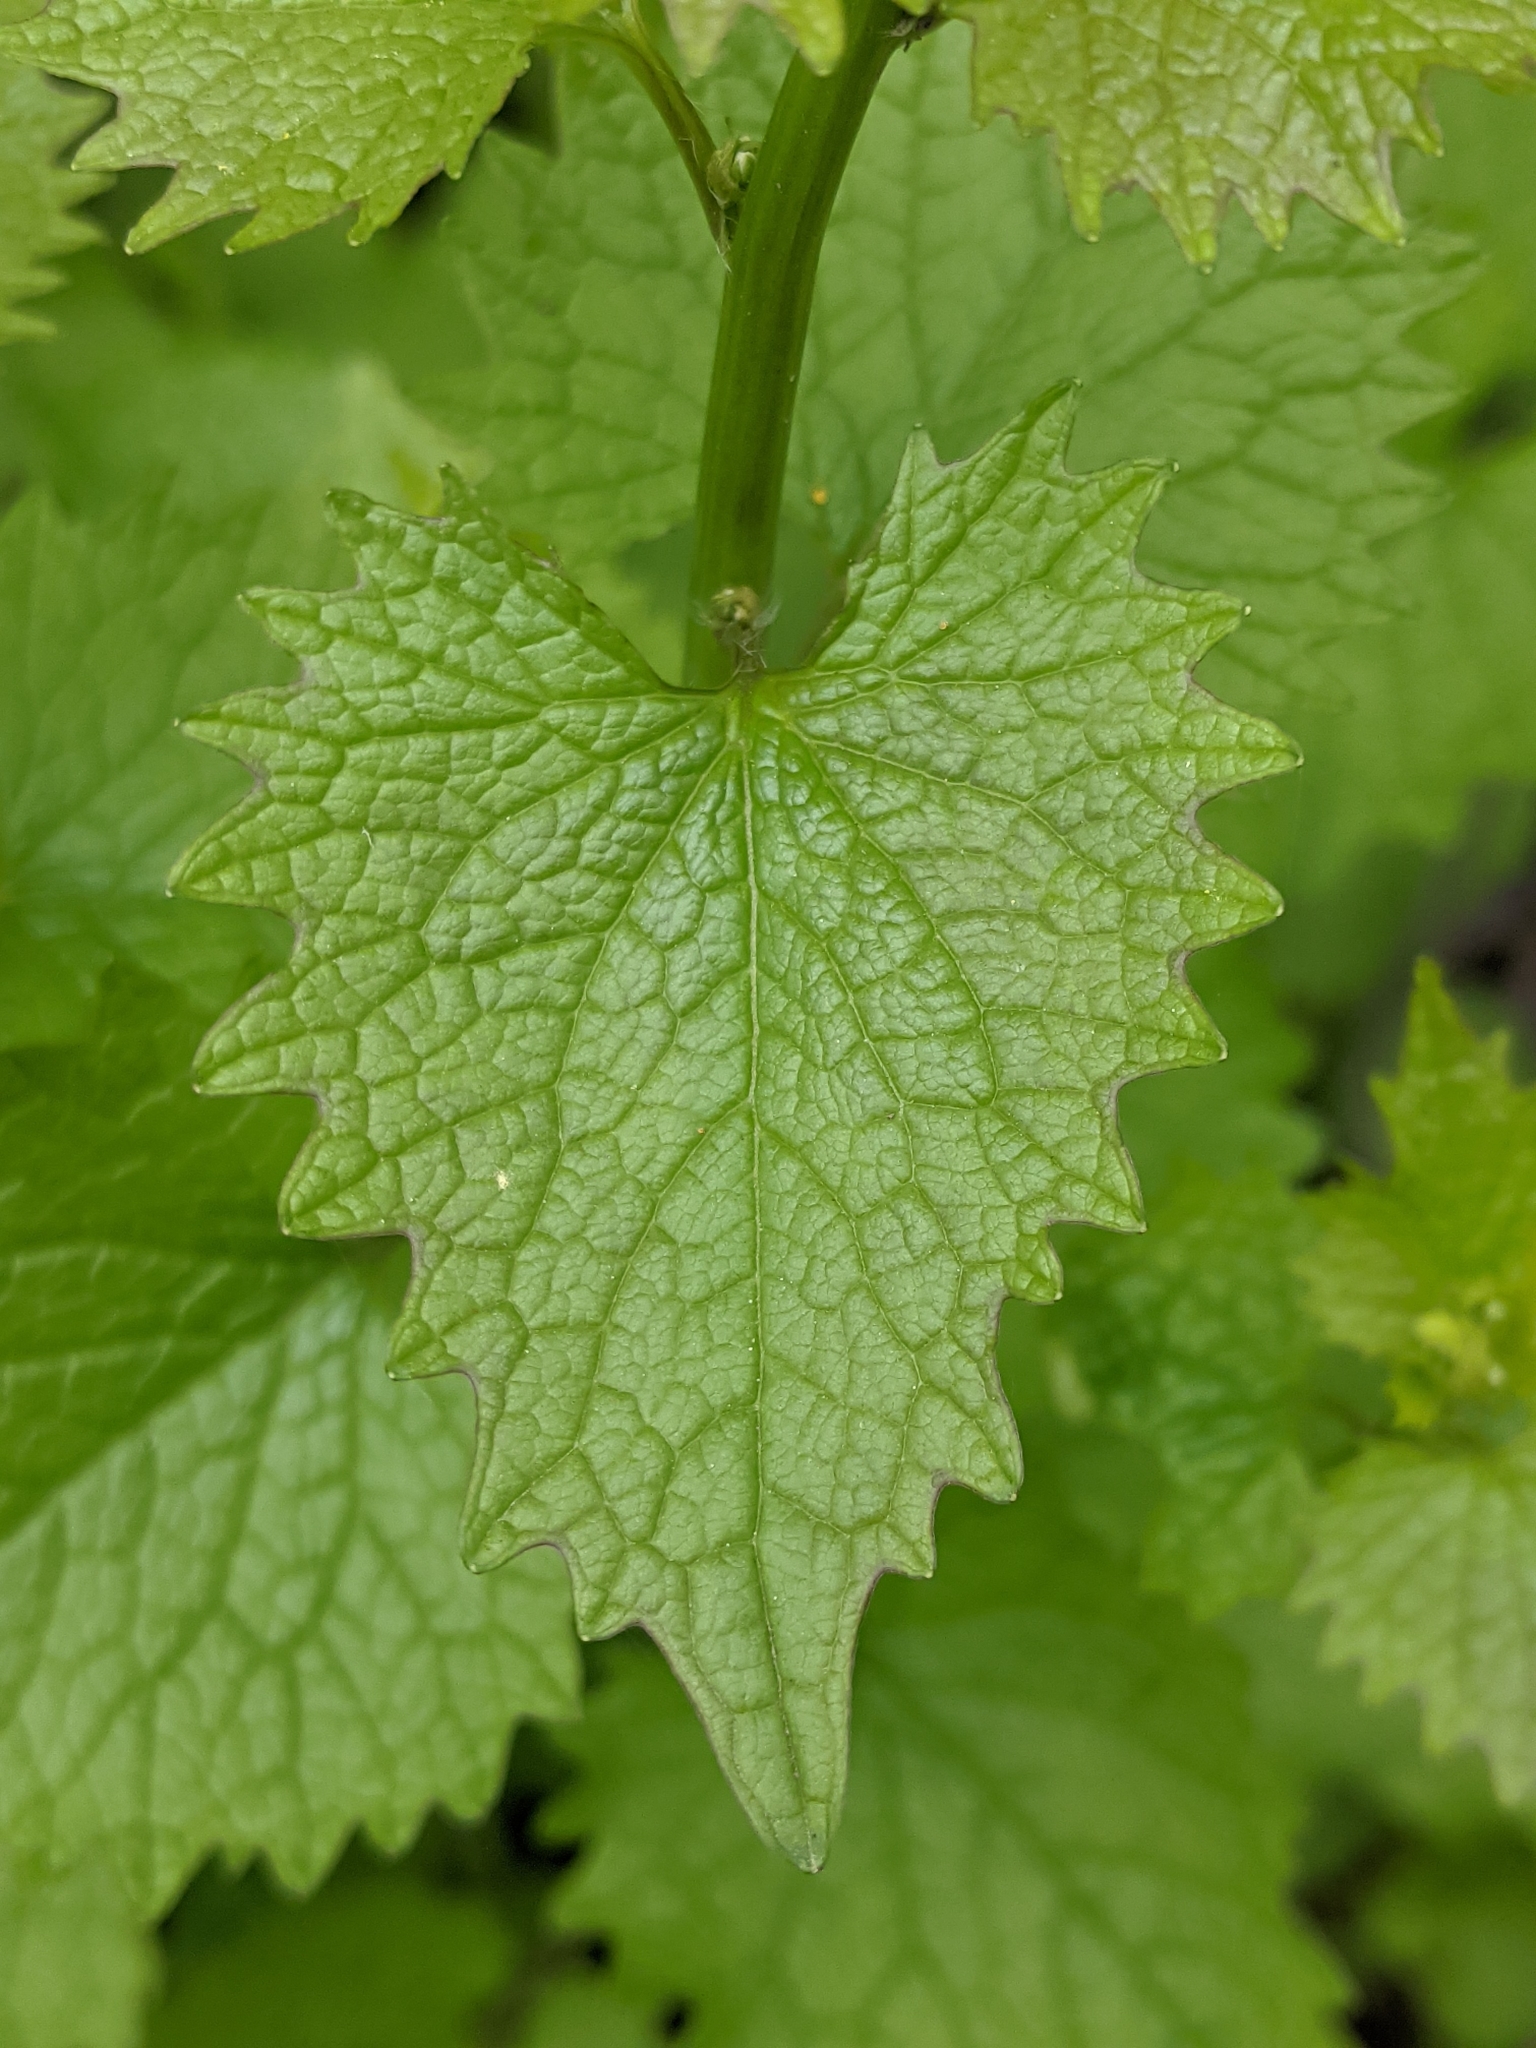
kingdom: Plantae
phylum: Tracheophyta
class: Magnoliopsida
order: Brassicales
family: Brassicaceae
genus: Alliaria
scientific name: Alliaria petiolata
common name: Garlic mustard
